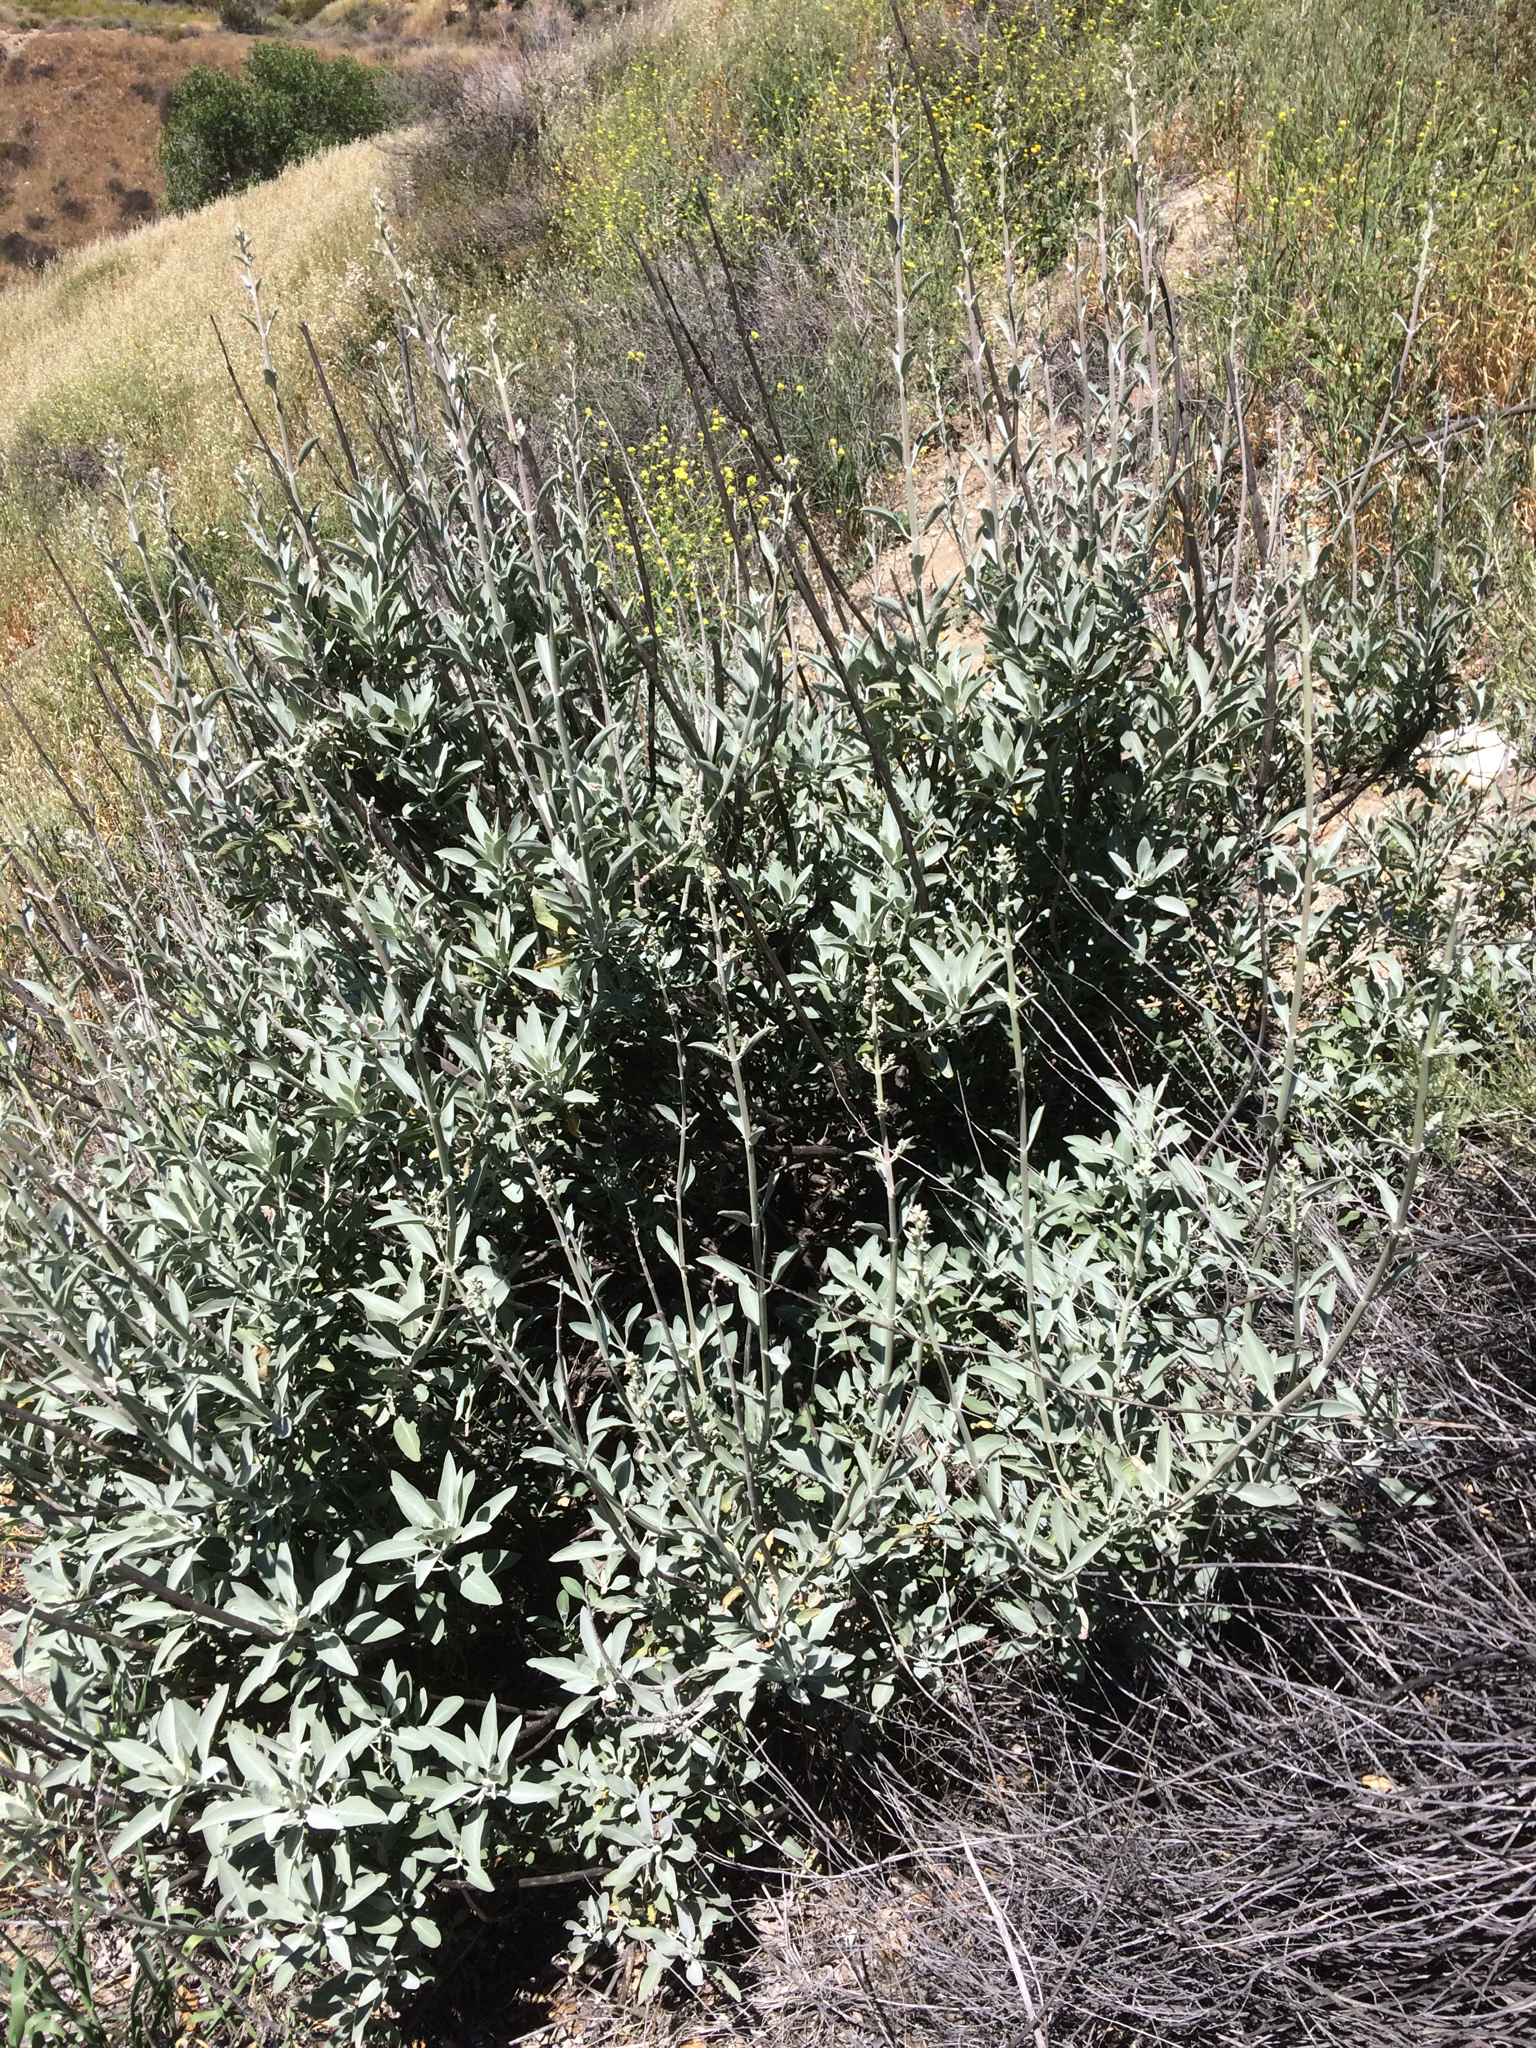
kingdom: Plantae
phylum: Tracheophyta
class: Magnoliopsida
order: Lamiales
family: Lamiaceae
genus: Salvia
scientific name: Salvia apiana
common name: White sage
